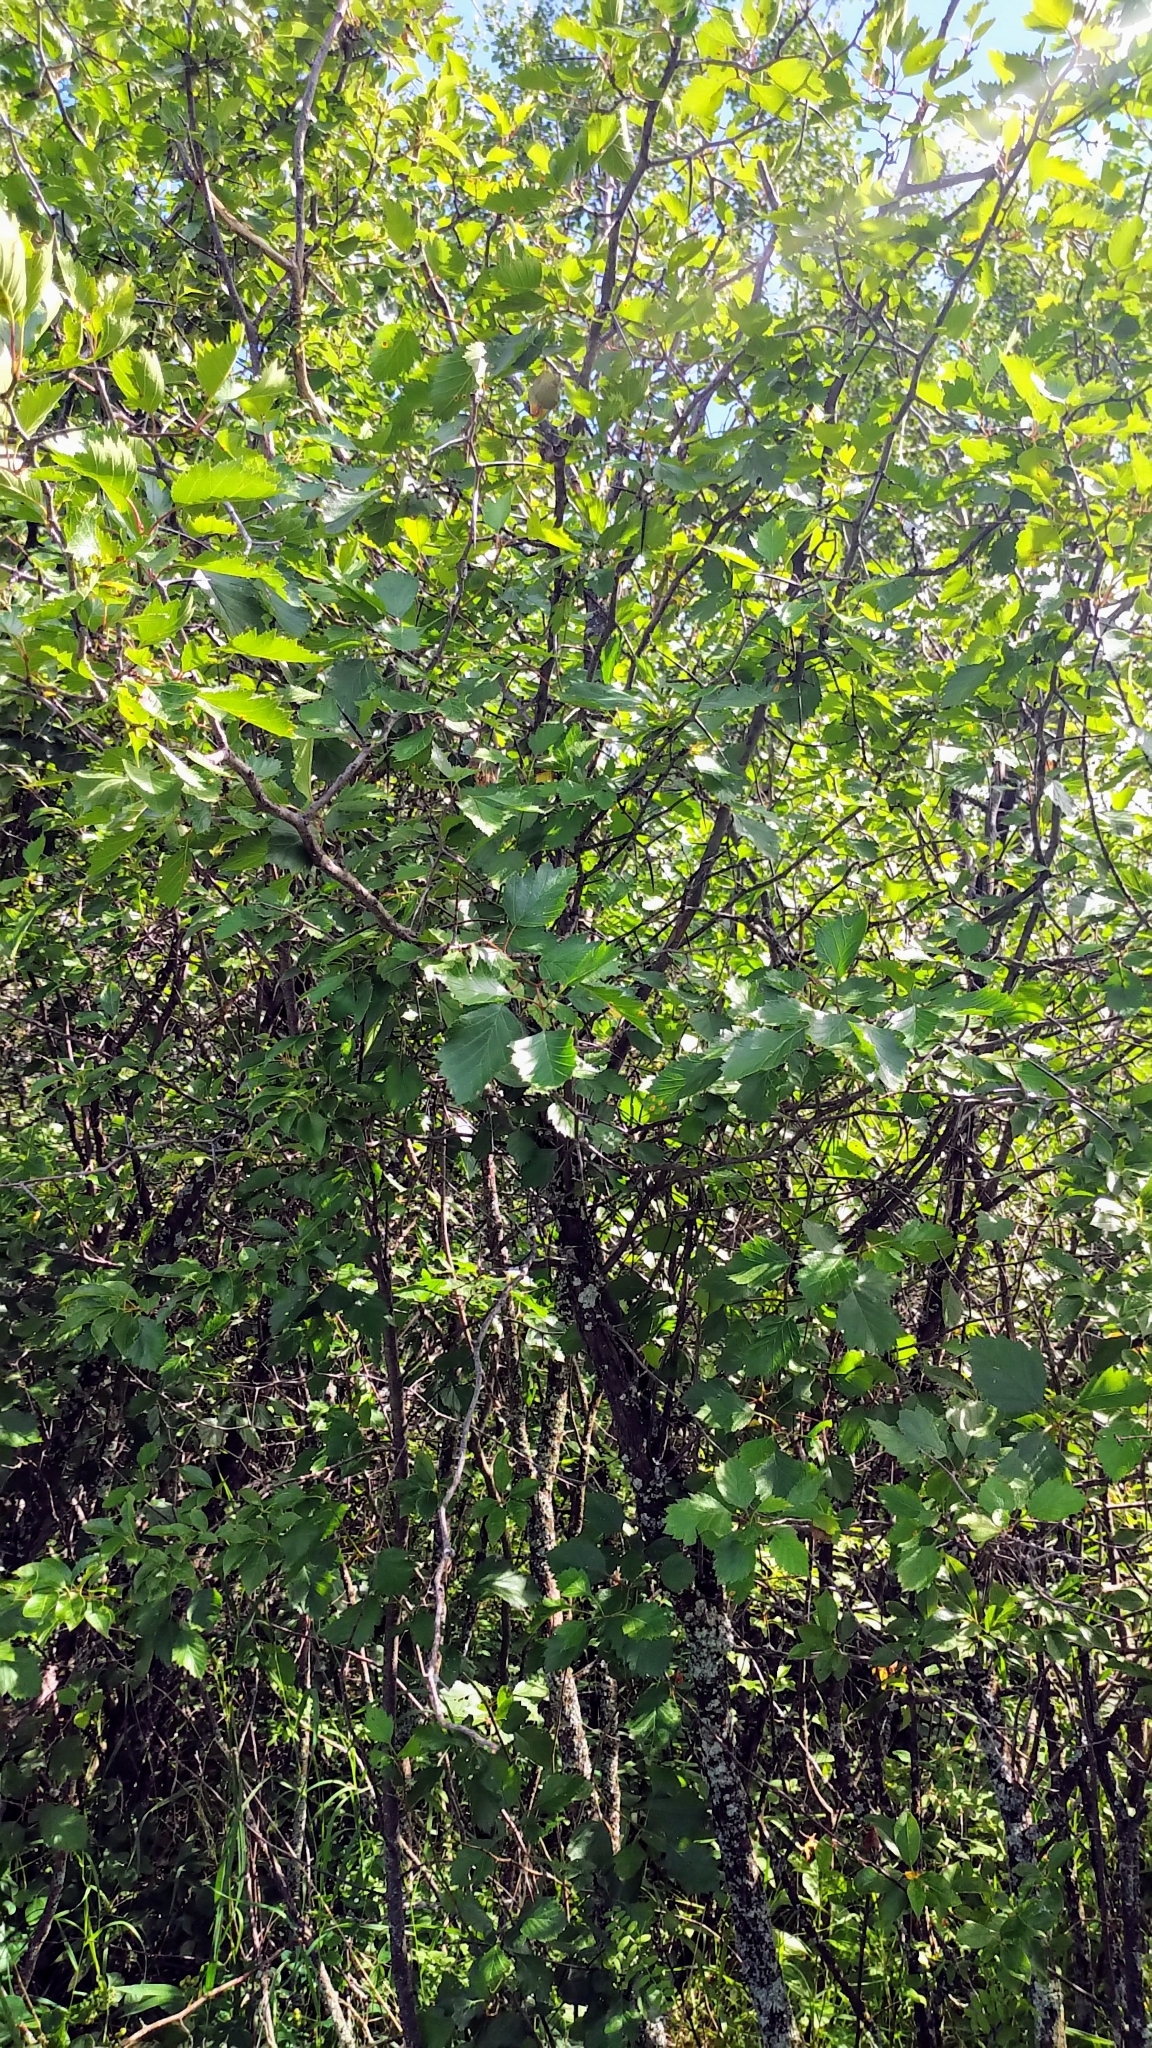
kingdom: Plantae
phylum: Tracheophyta
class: Magnoliopsida
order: Rosales
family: Rosaceae
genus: Crataegus
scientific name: Crataegus chrysocarpa
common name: Fire-berry hawthorn
